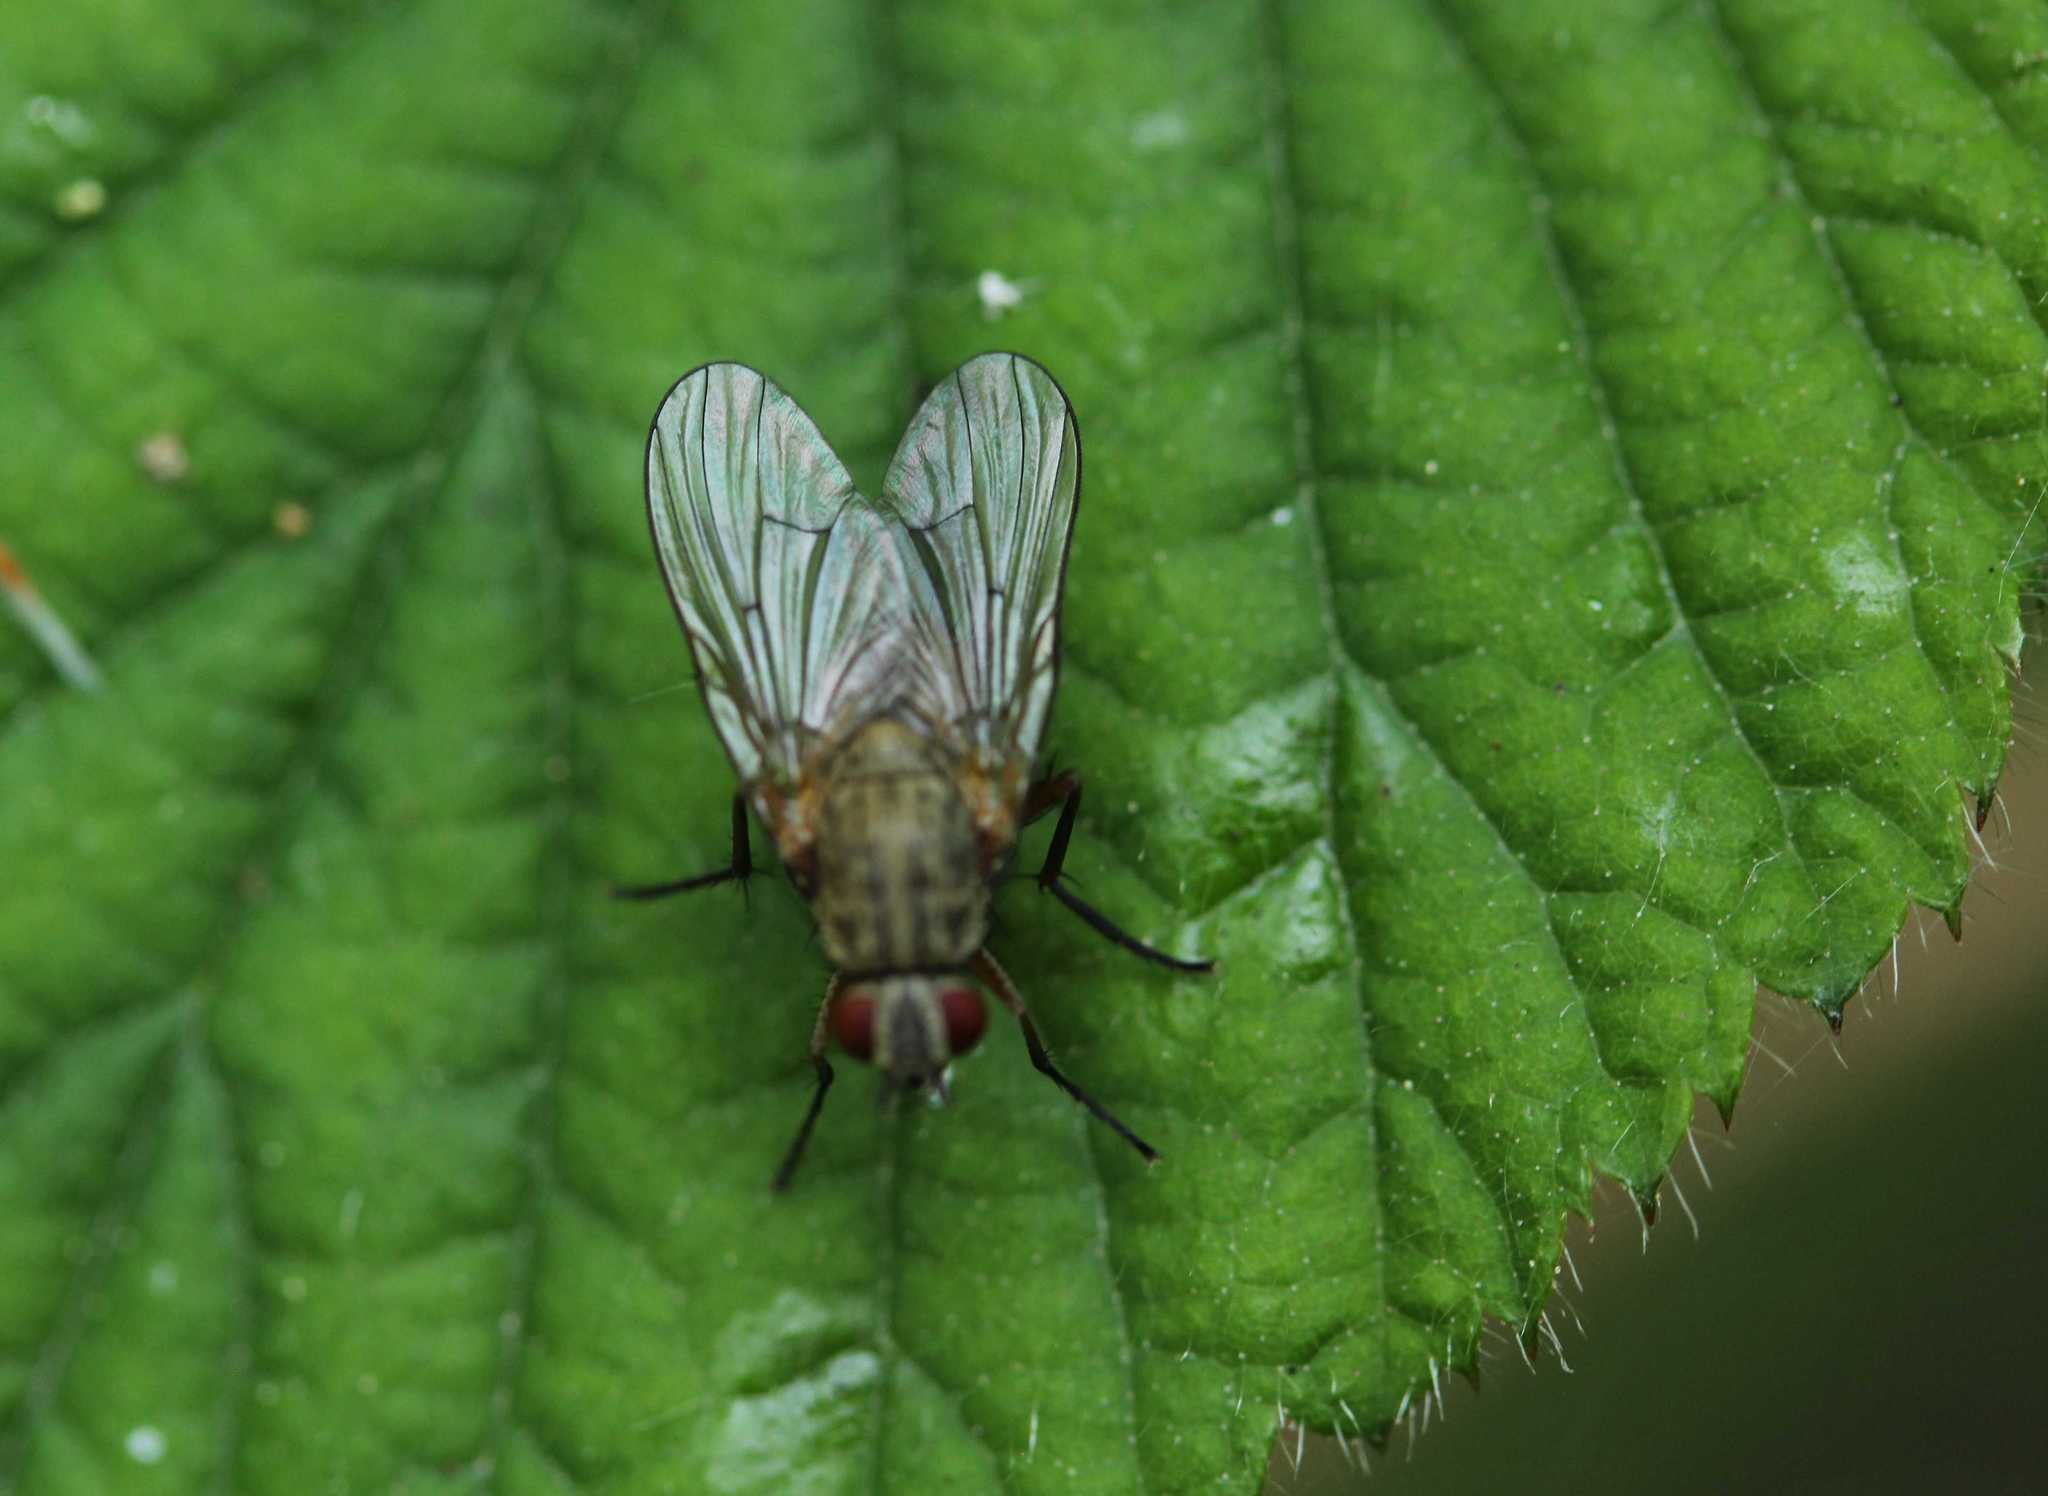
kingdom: Animalia
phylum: Arthropoda
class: Insecta
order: Diptera
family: Muscidae
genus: Helina
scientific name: Helina impuncta
